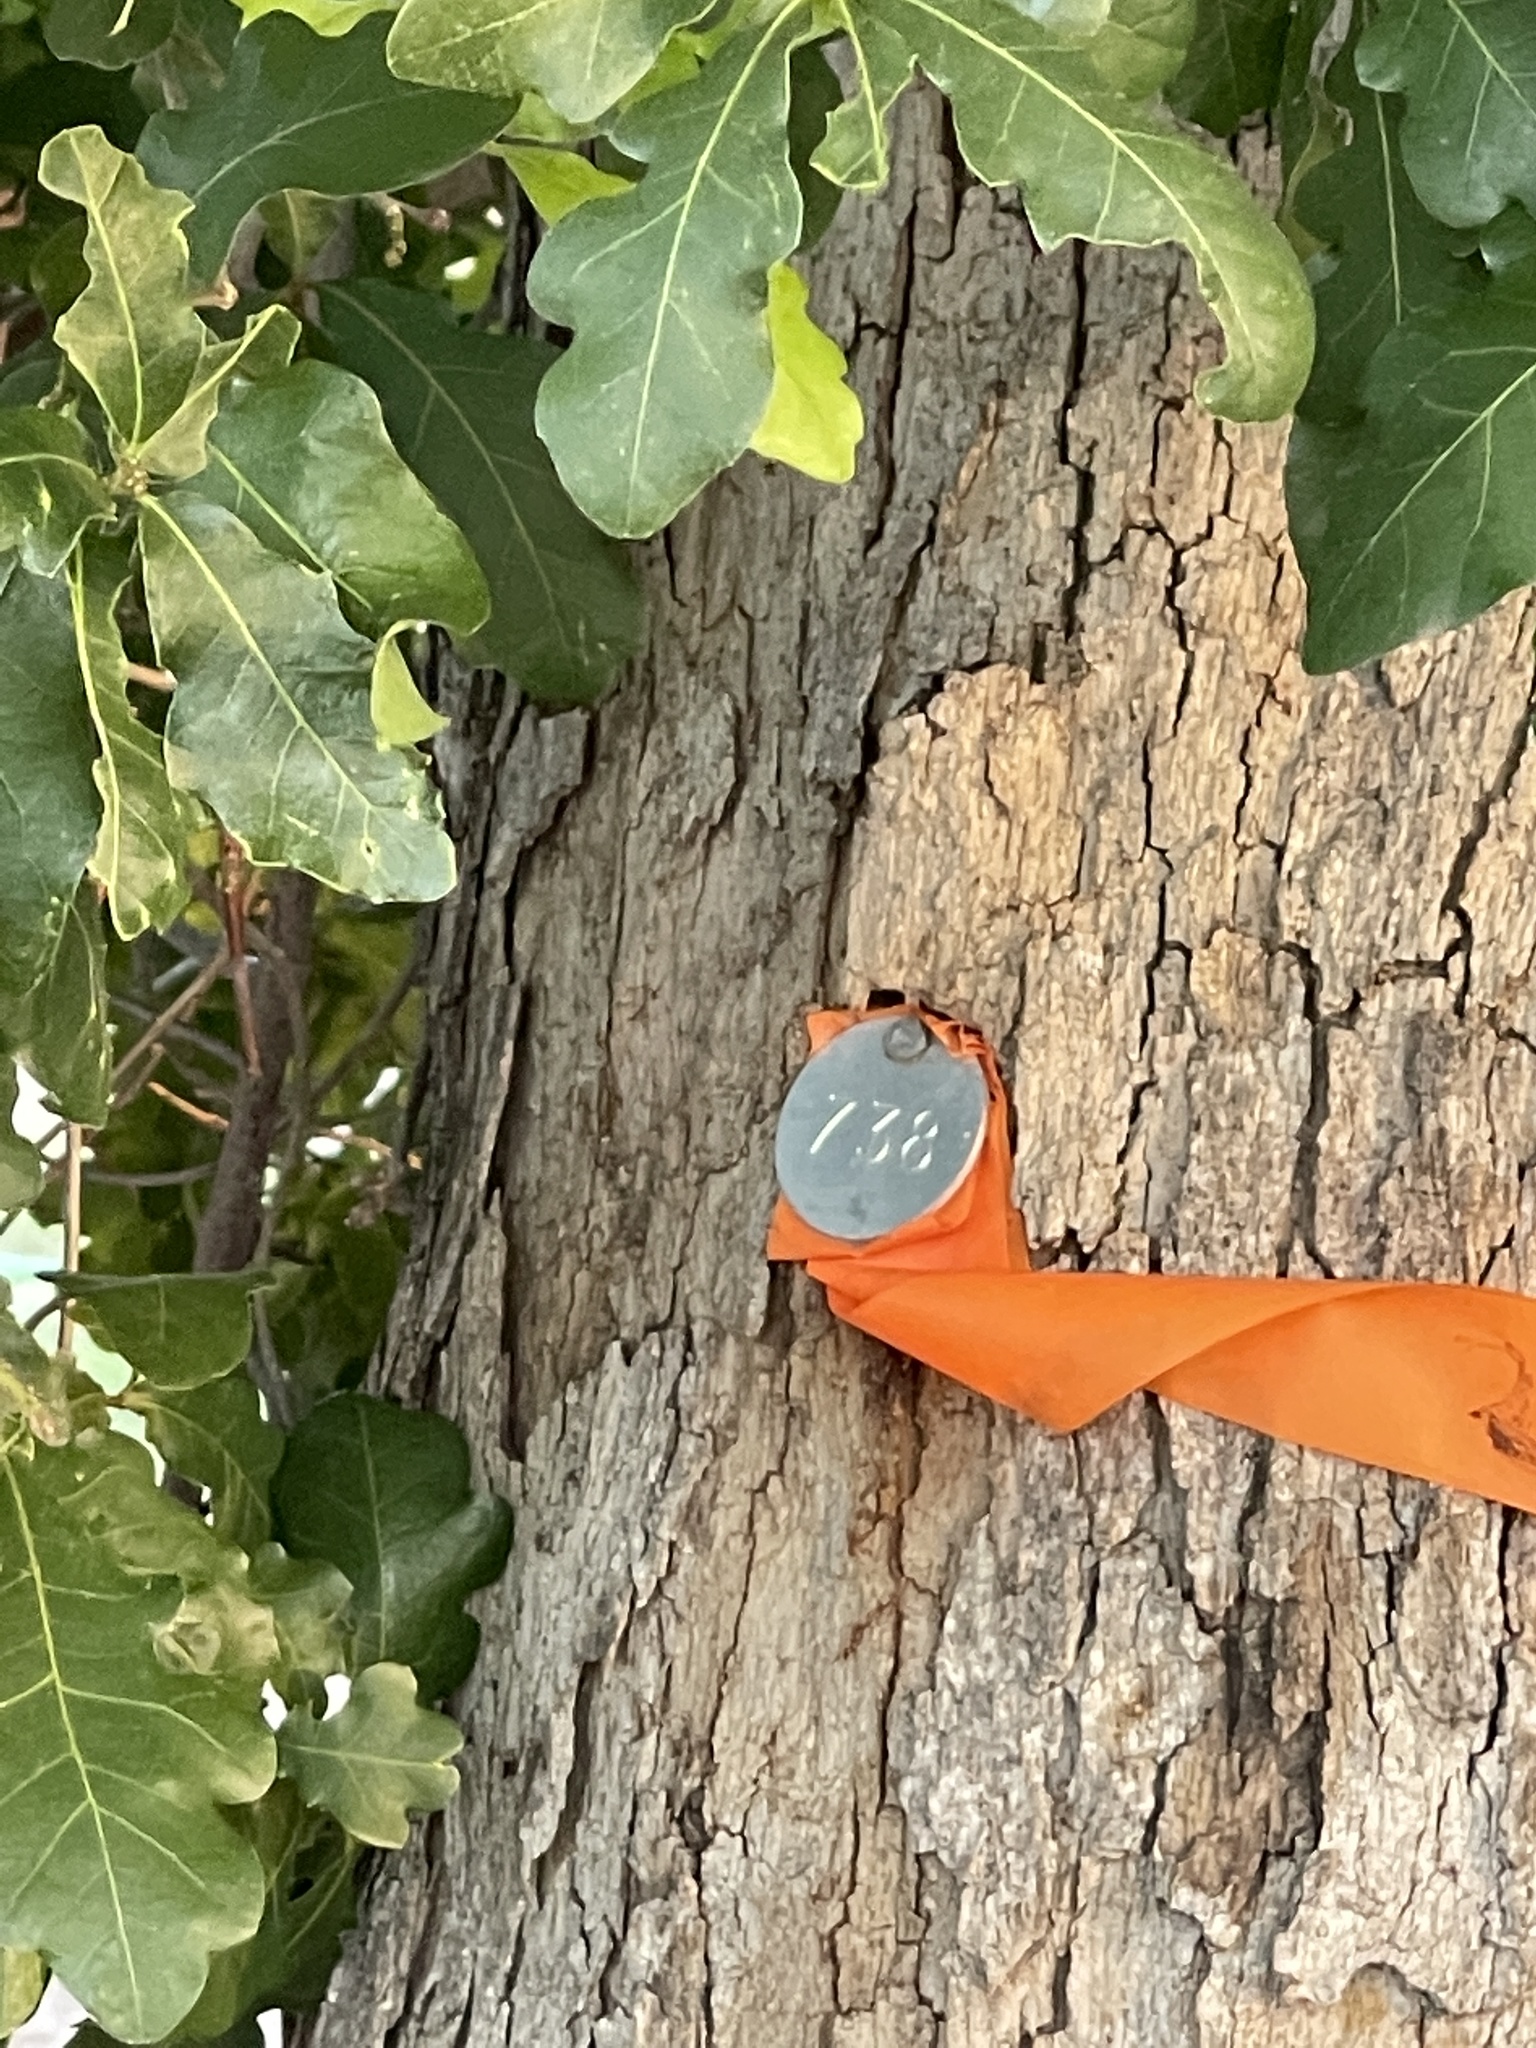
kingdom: Plantae
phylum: Tracheophyta
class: Magnoliopsida
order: Fagales
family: Fagaceae
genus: Quercus
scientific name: Quercus sinuata
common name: Durand oak
